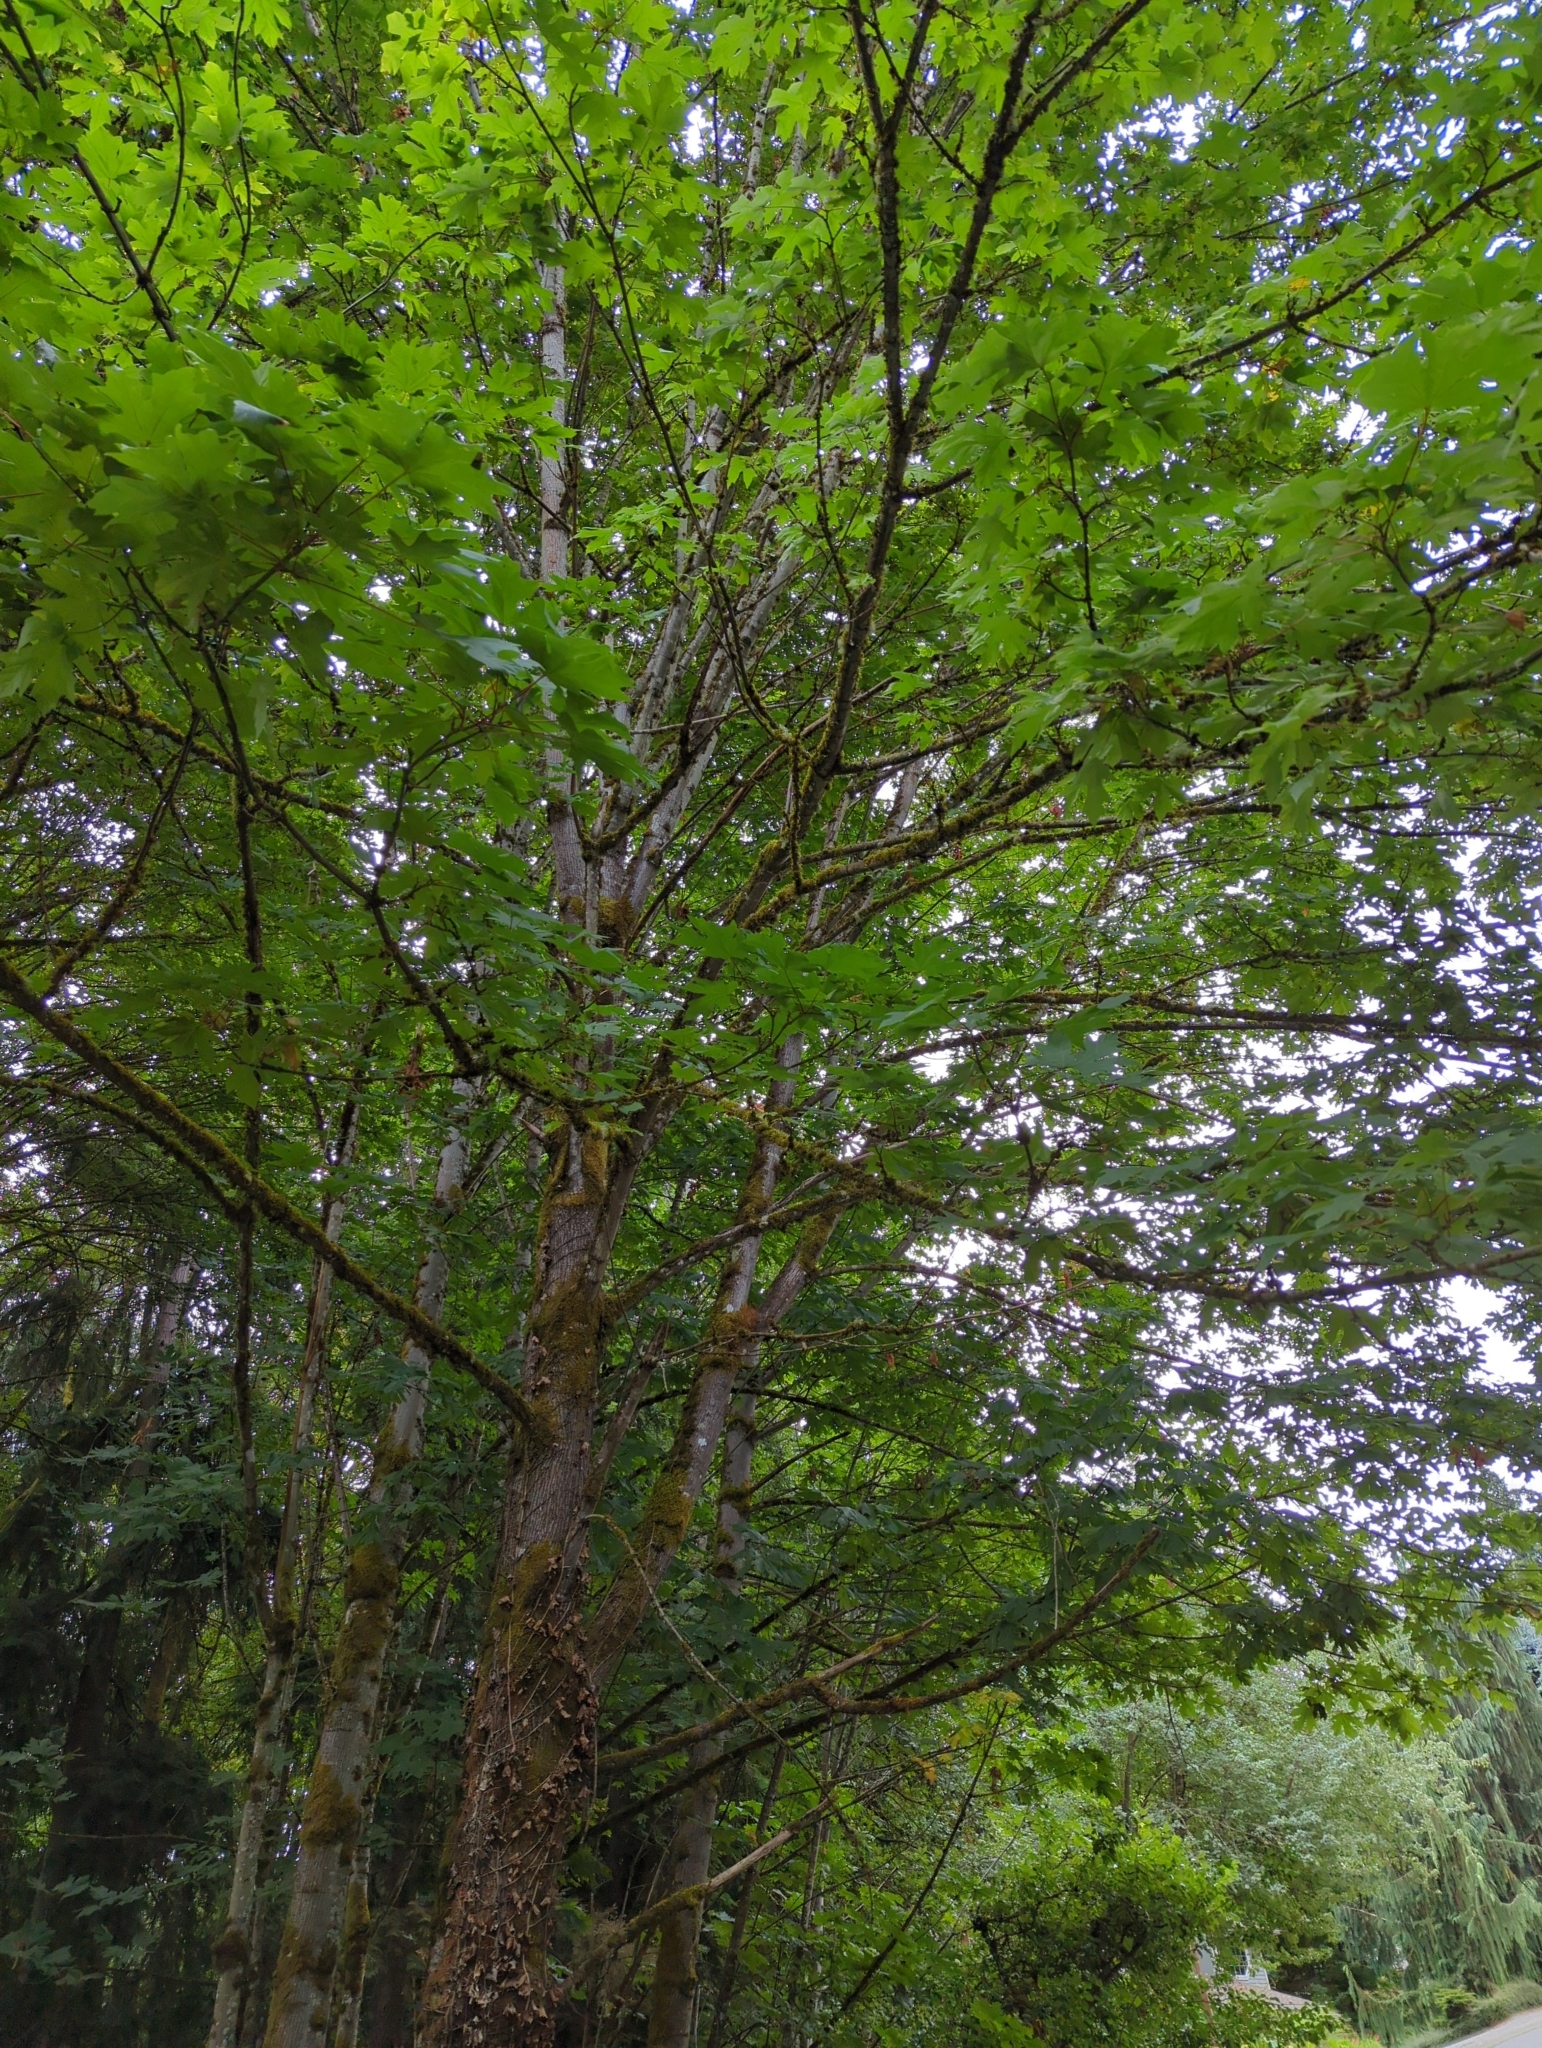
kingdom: Plantae
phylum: Tracheophyta
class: Magnoliopsida
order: Sapindales
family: Sapindaceae
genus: Acer
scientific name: Acer macrophyllum
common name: Oregon maple
